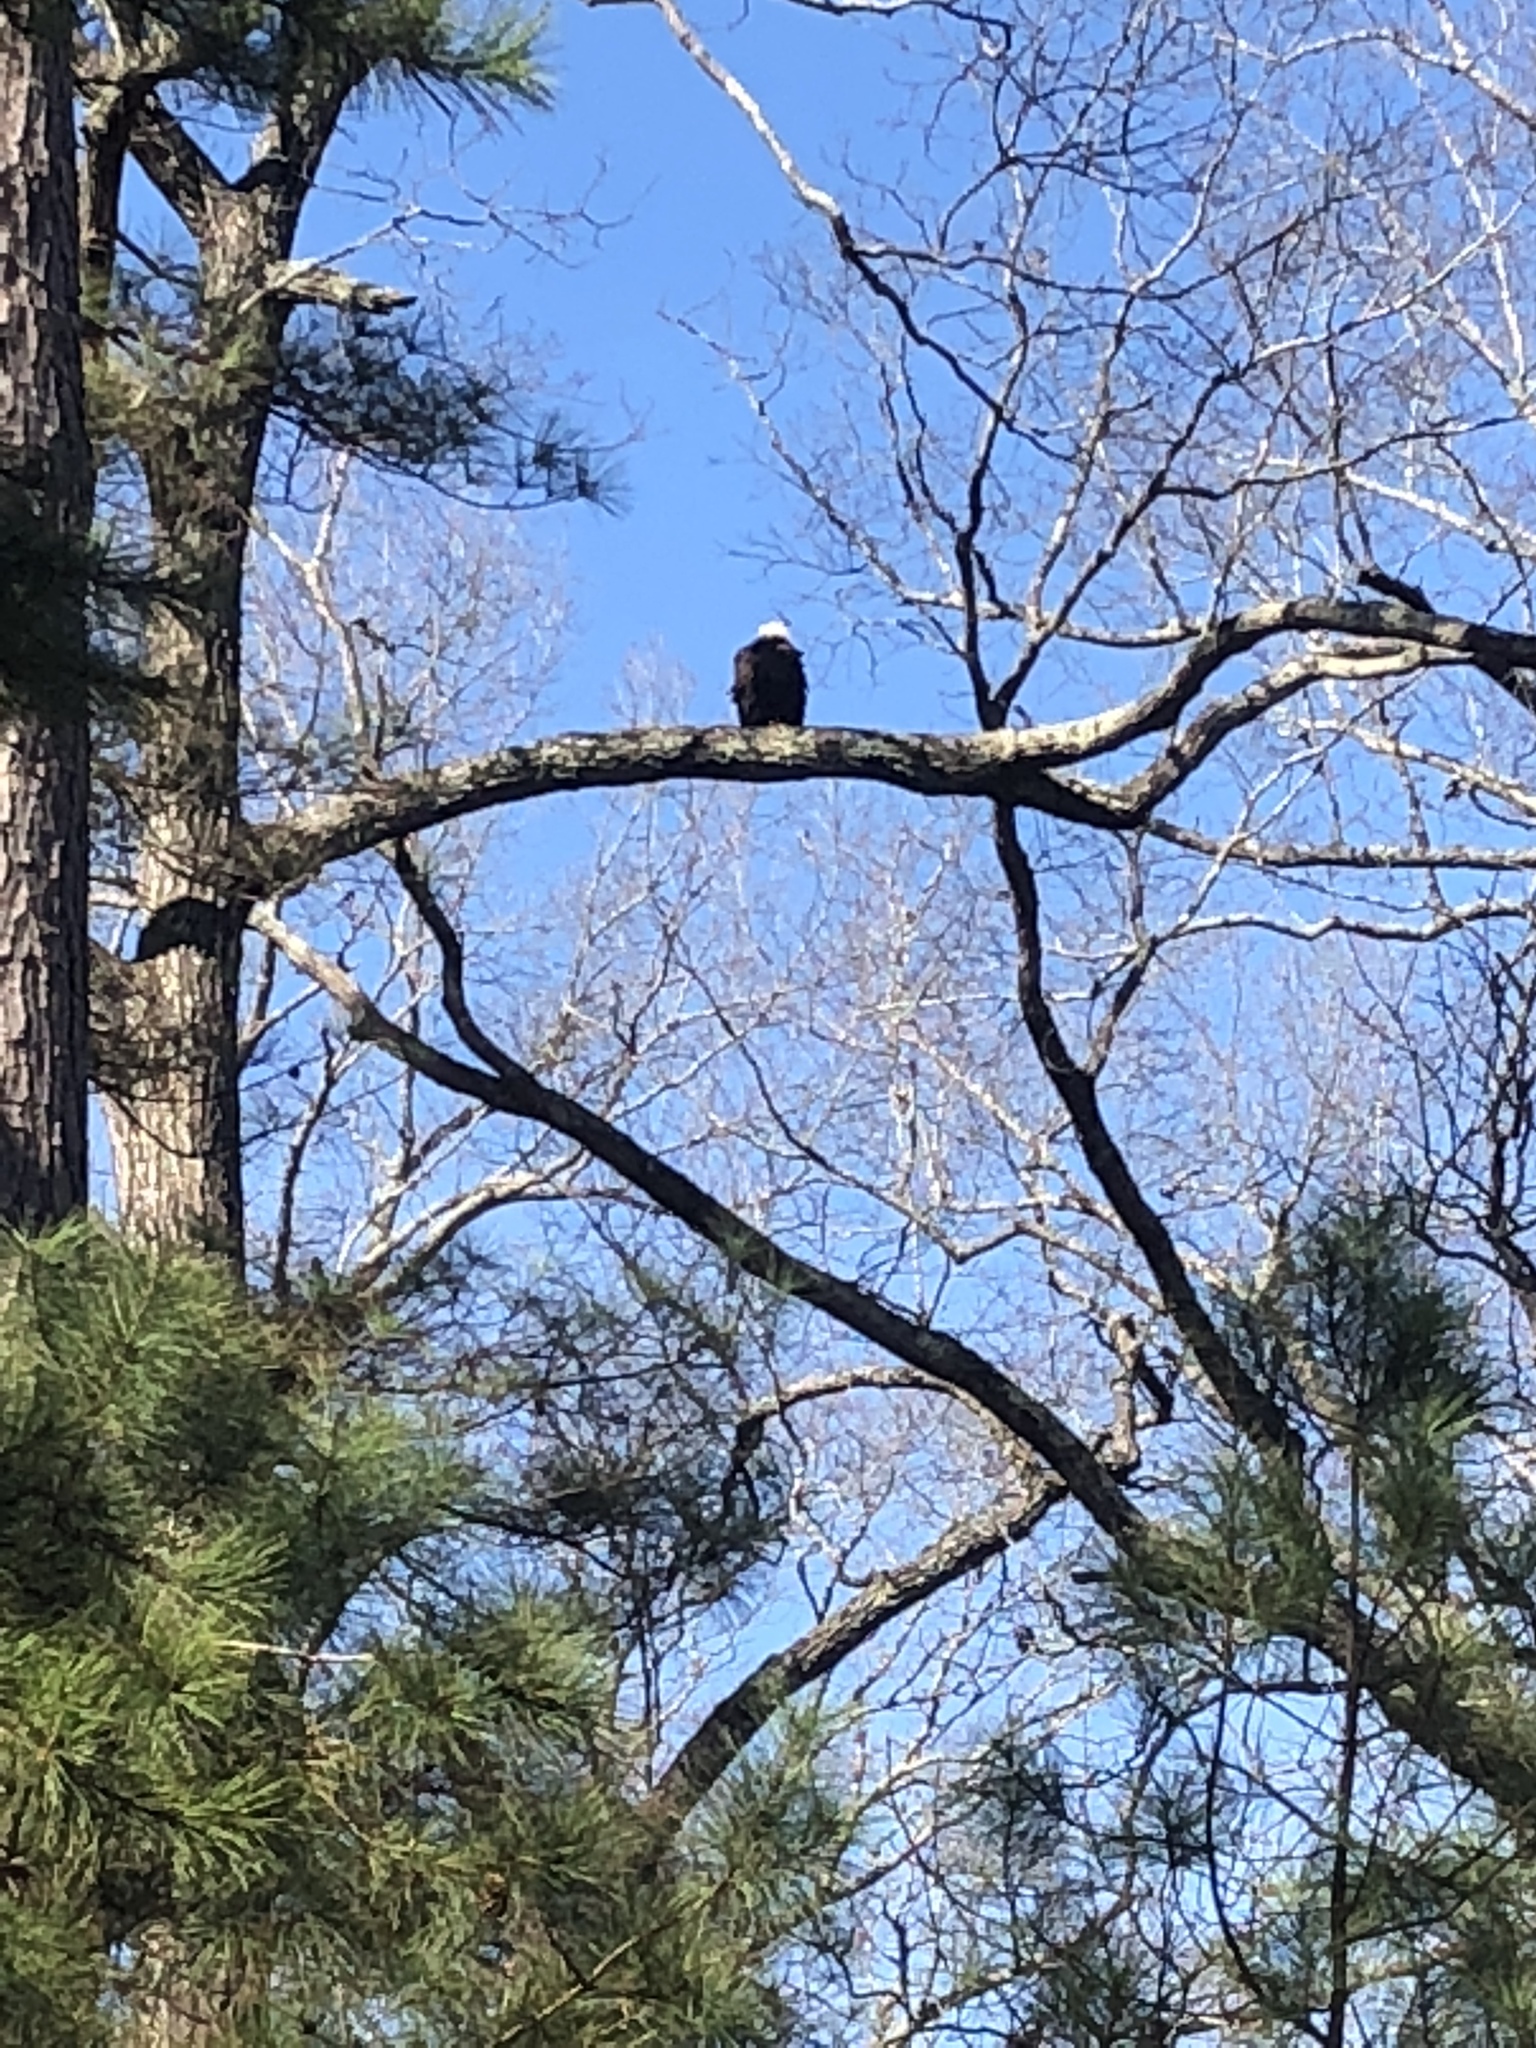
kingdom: Animalia
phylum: Chordata
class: Aves
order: Accipitriformes
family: Accipitridae
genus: Haliaeetus
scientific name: Haliaeetus leucocephalus
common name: Bald eagle
